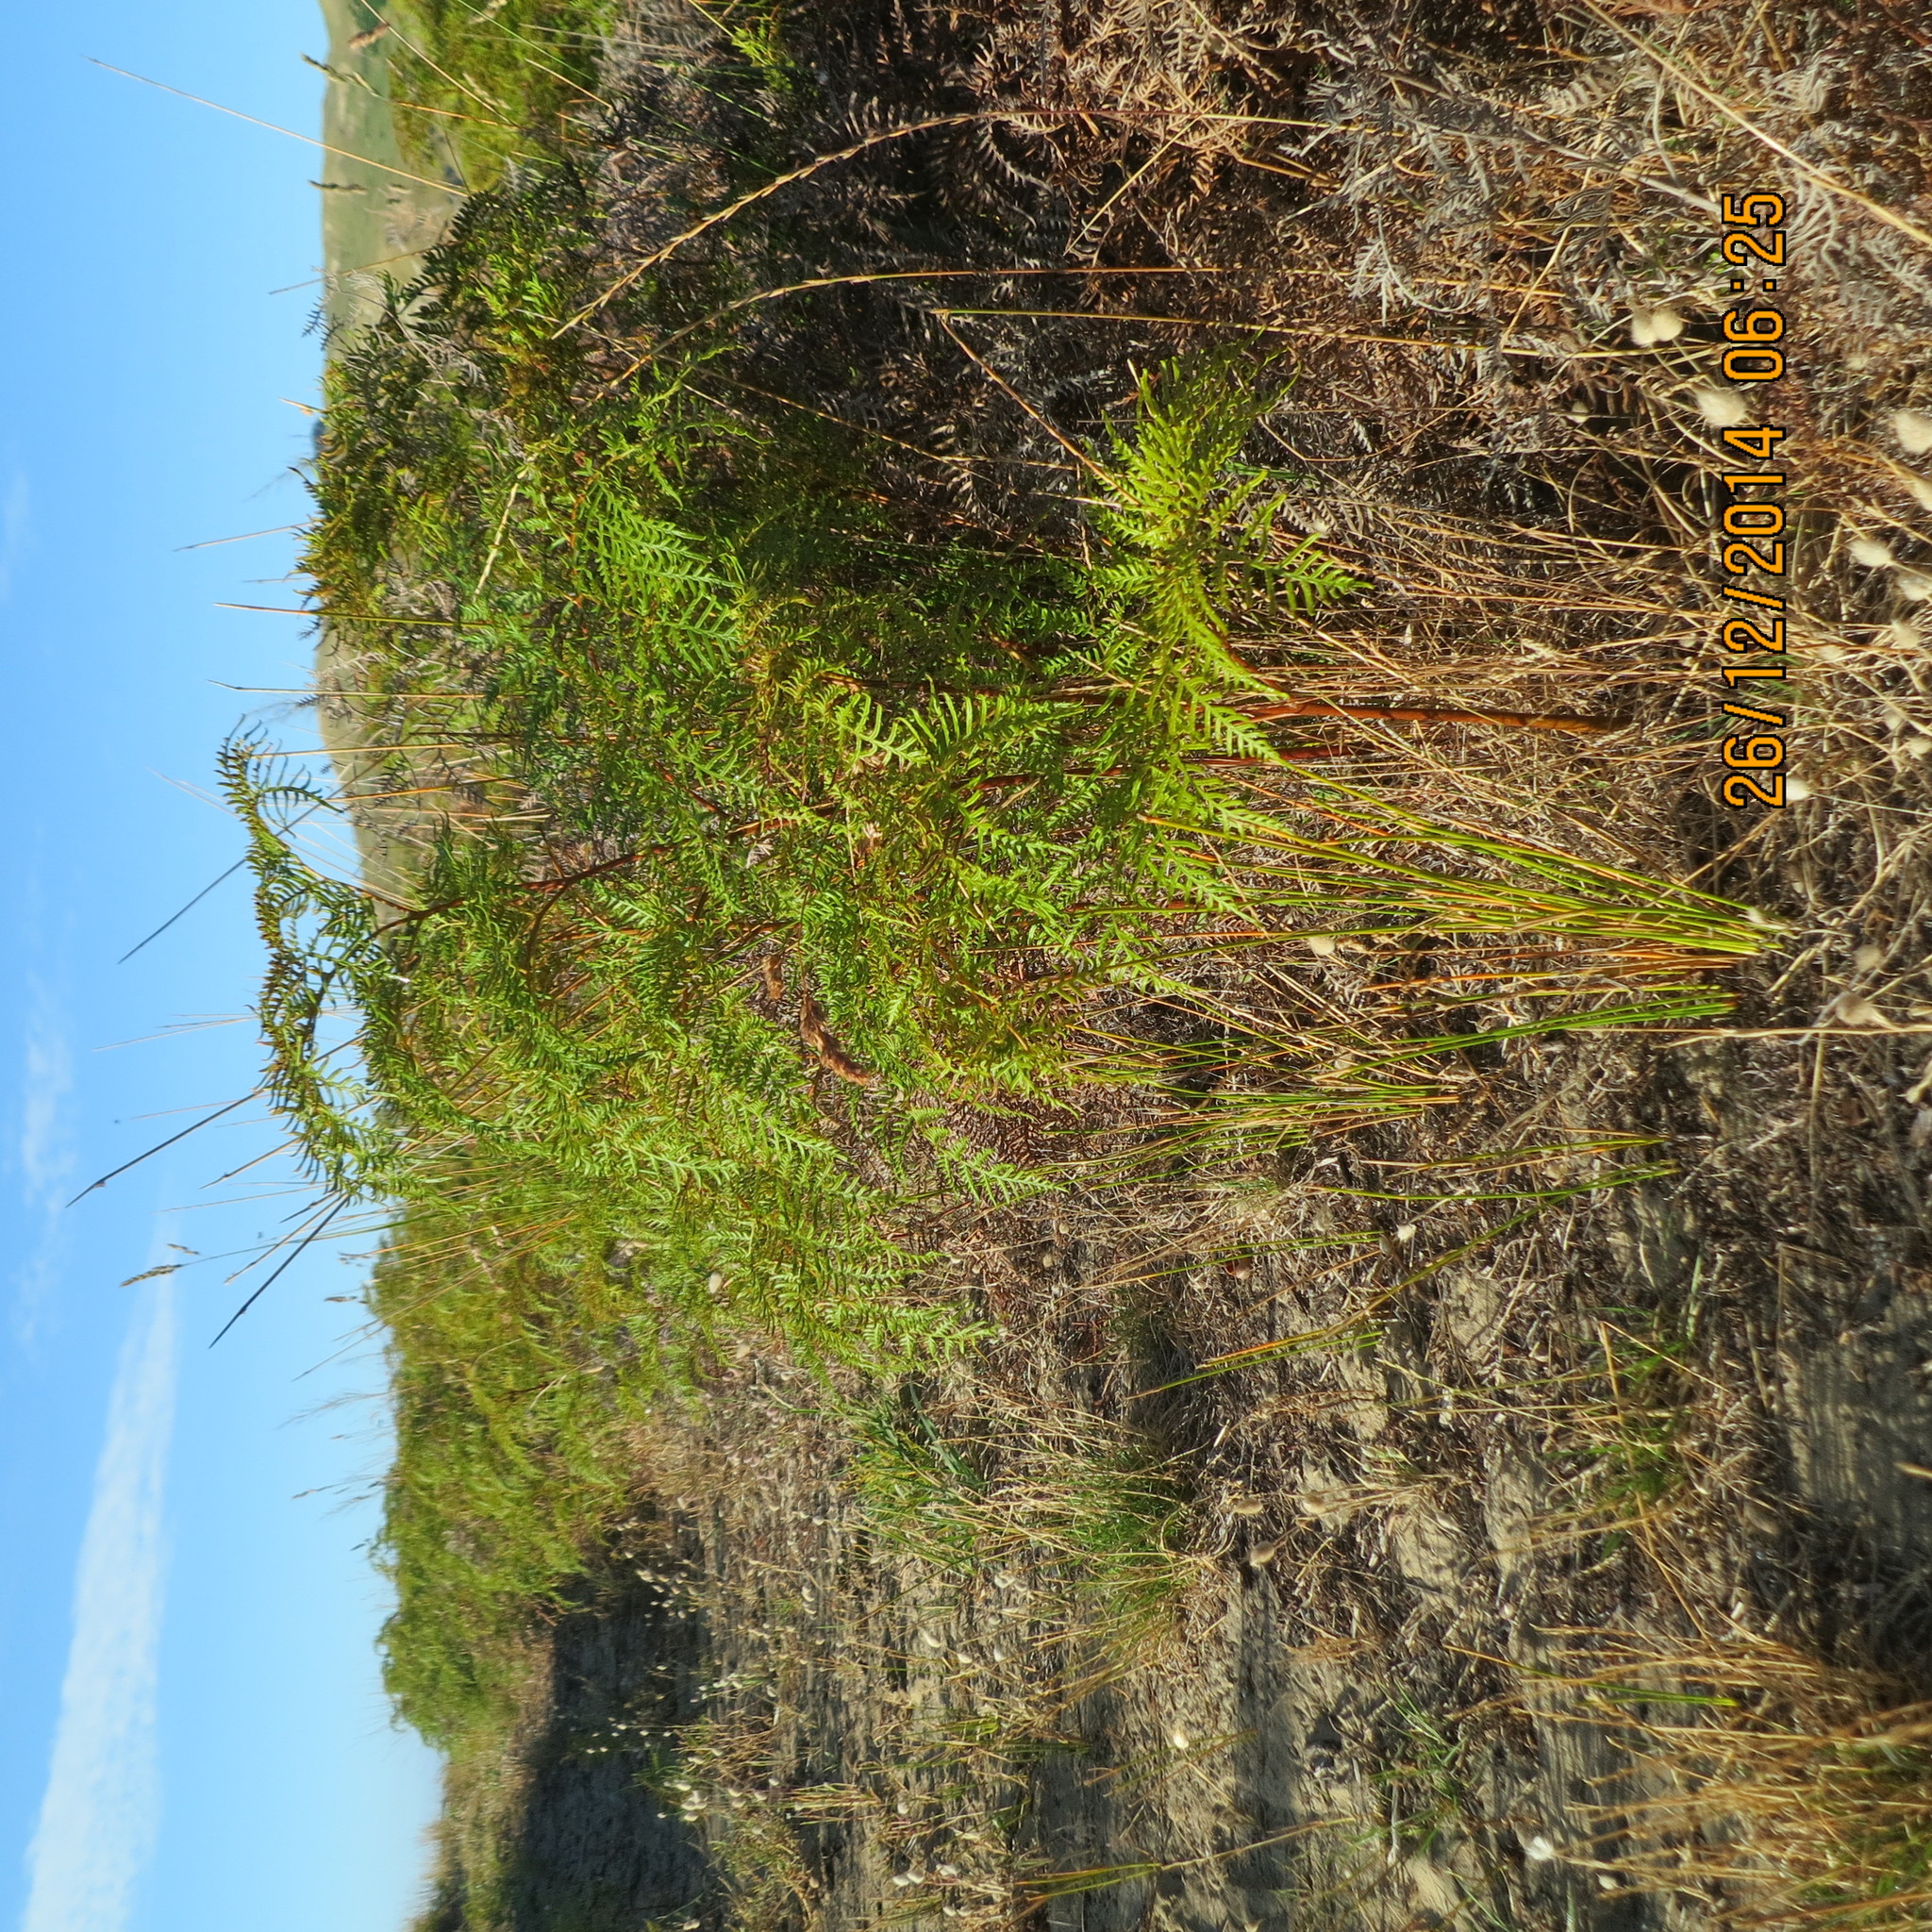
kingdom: Plantae
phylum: Tracheophyta
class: Polypodiopsida
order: Polypodiales
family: Dennstaedtiaceae
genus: Pteridium
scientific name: Pteridium esculentum
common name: Bracken fern
